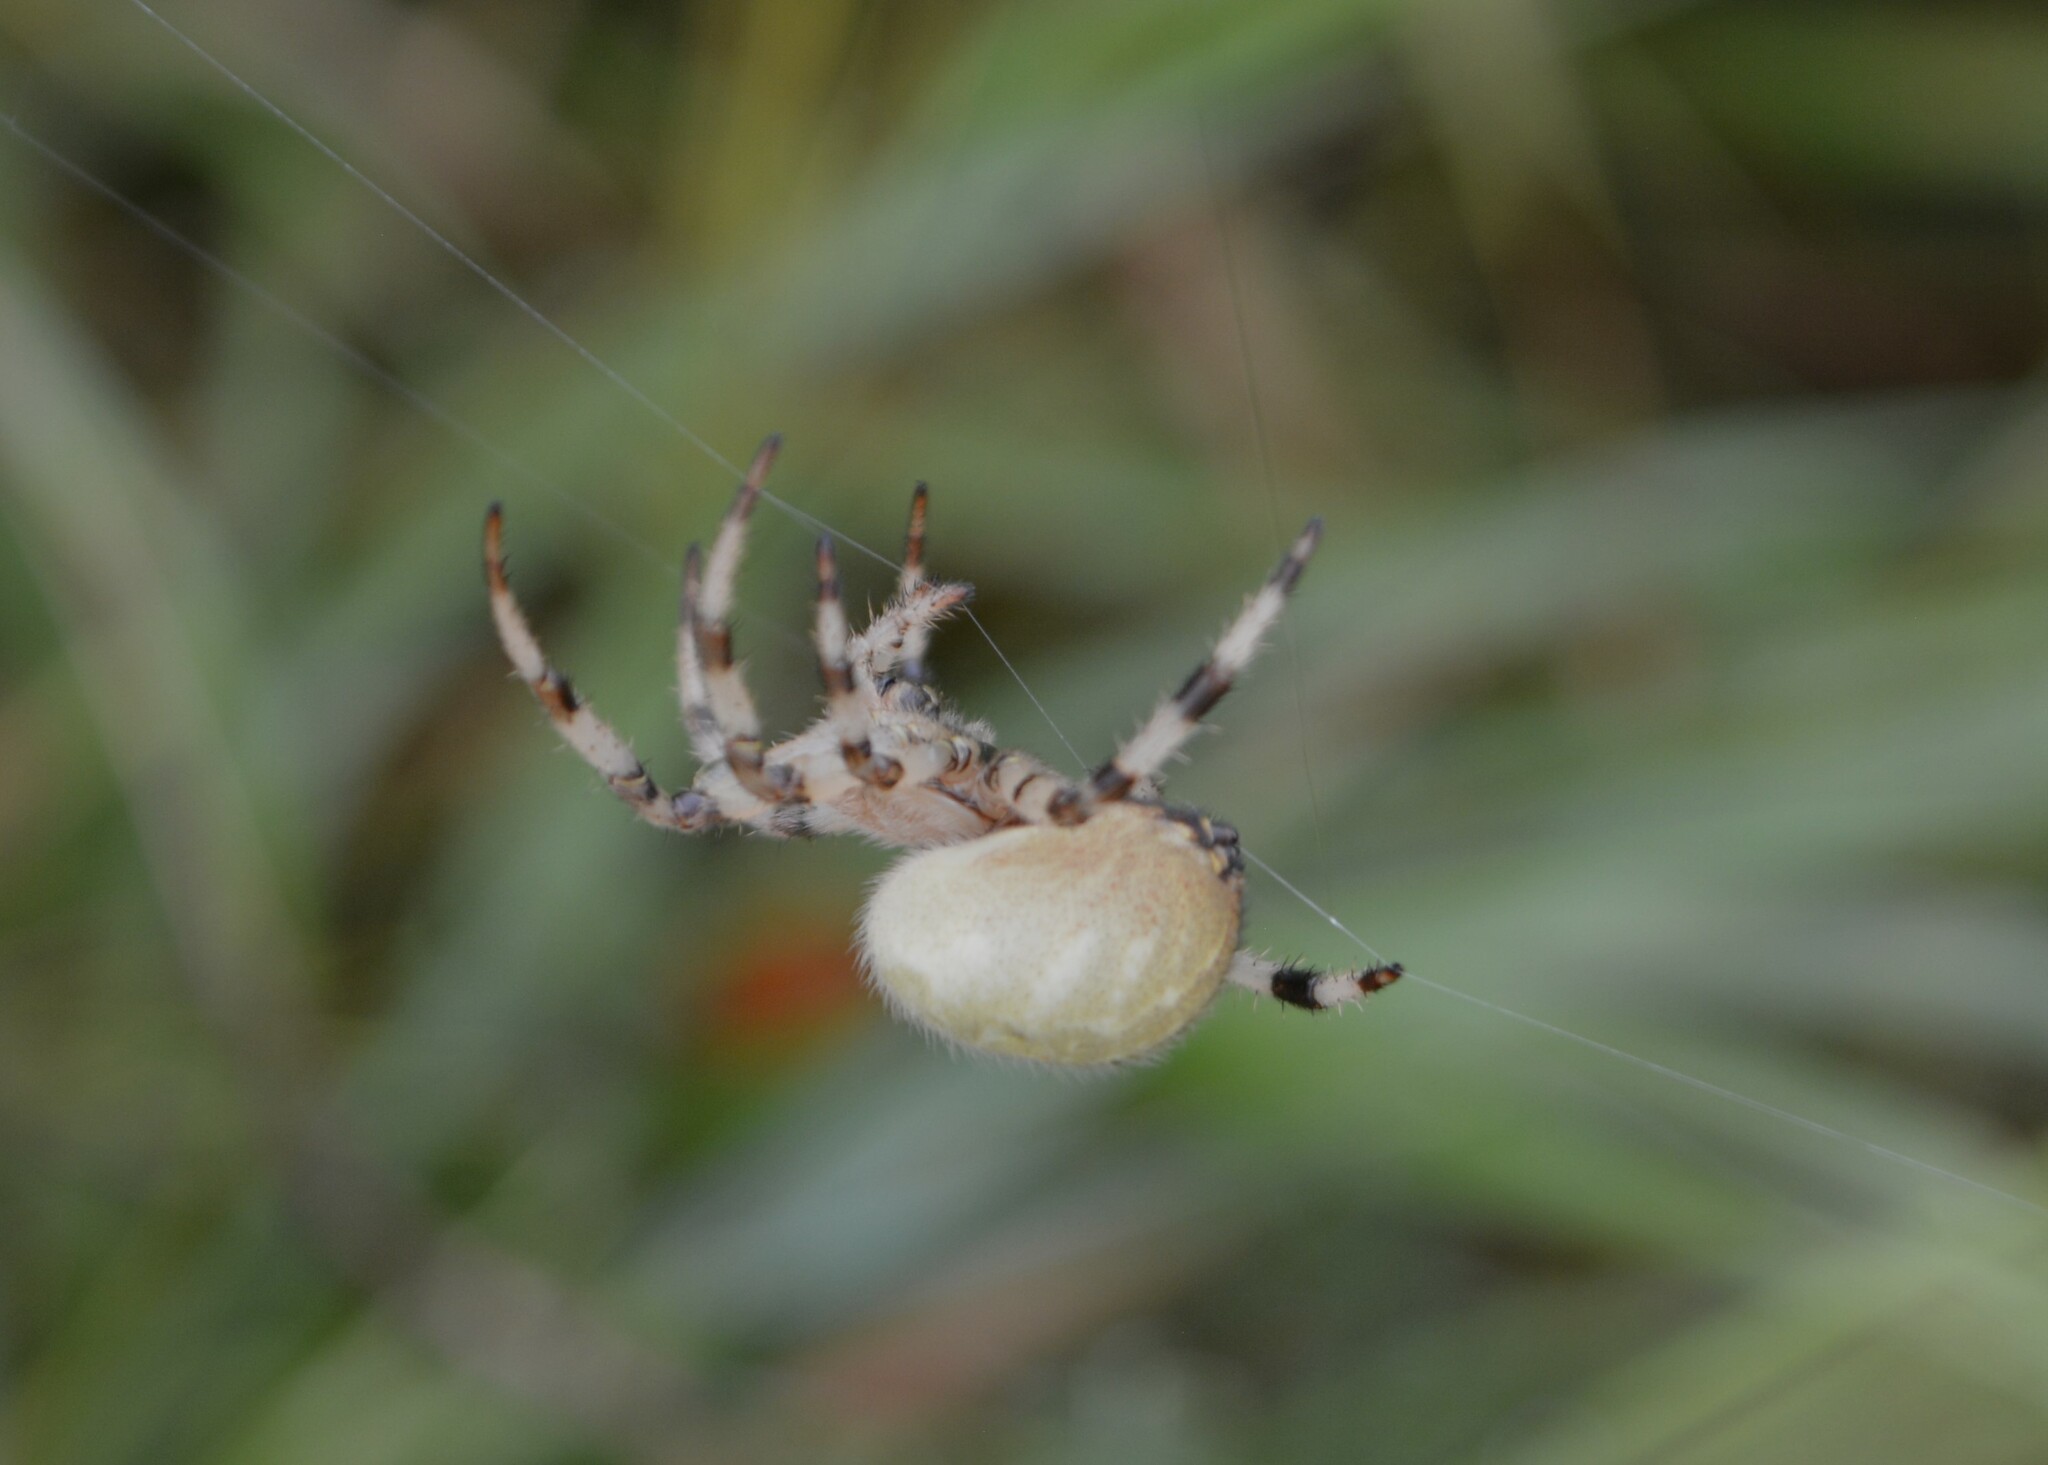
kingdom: Animalia
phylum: Arthropoda
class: Arachnida
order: Araneae
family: Araneidae
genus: Araneus
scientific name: Araneus quadratus
